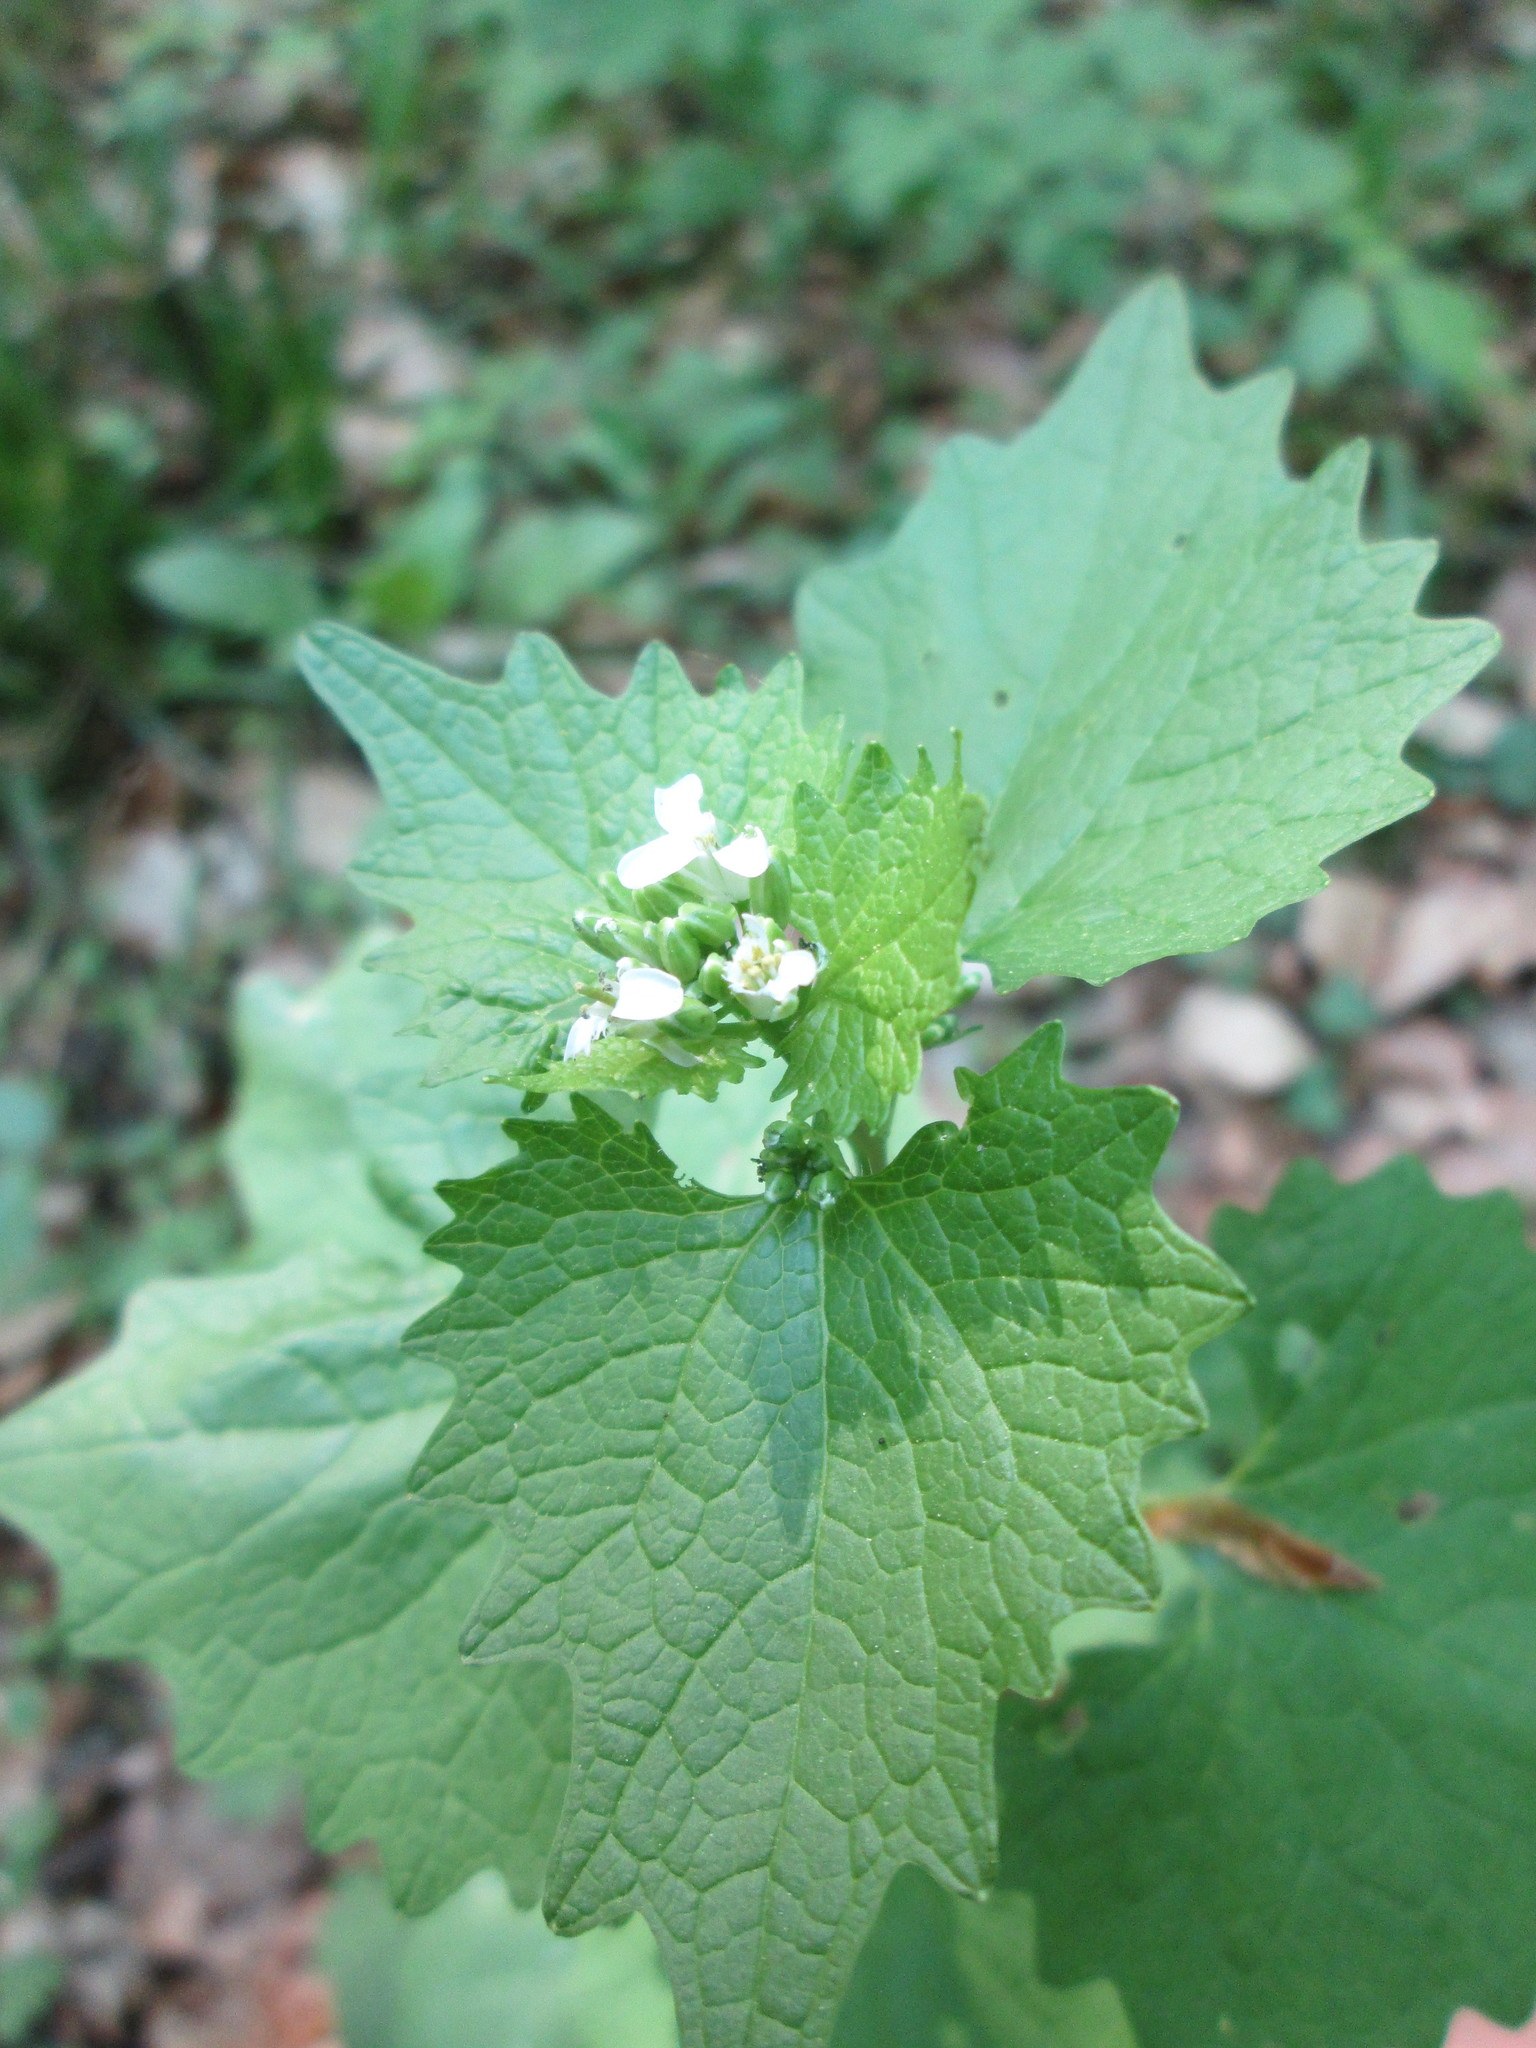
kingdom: Plantae
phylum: Tracheophyta
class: Magnoliopsida
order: Brassicales
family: Brassicaceae
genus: Alliaria
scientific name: Alliaria petiolata
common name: Garlic mustard
